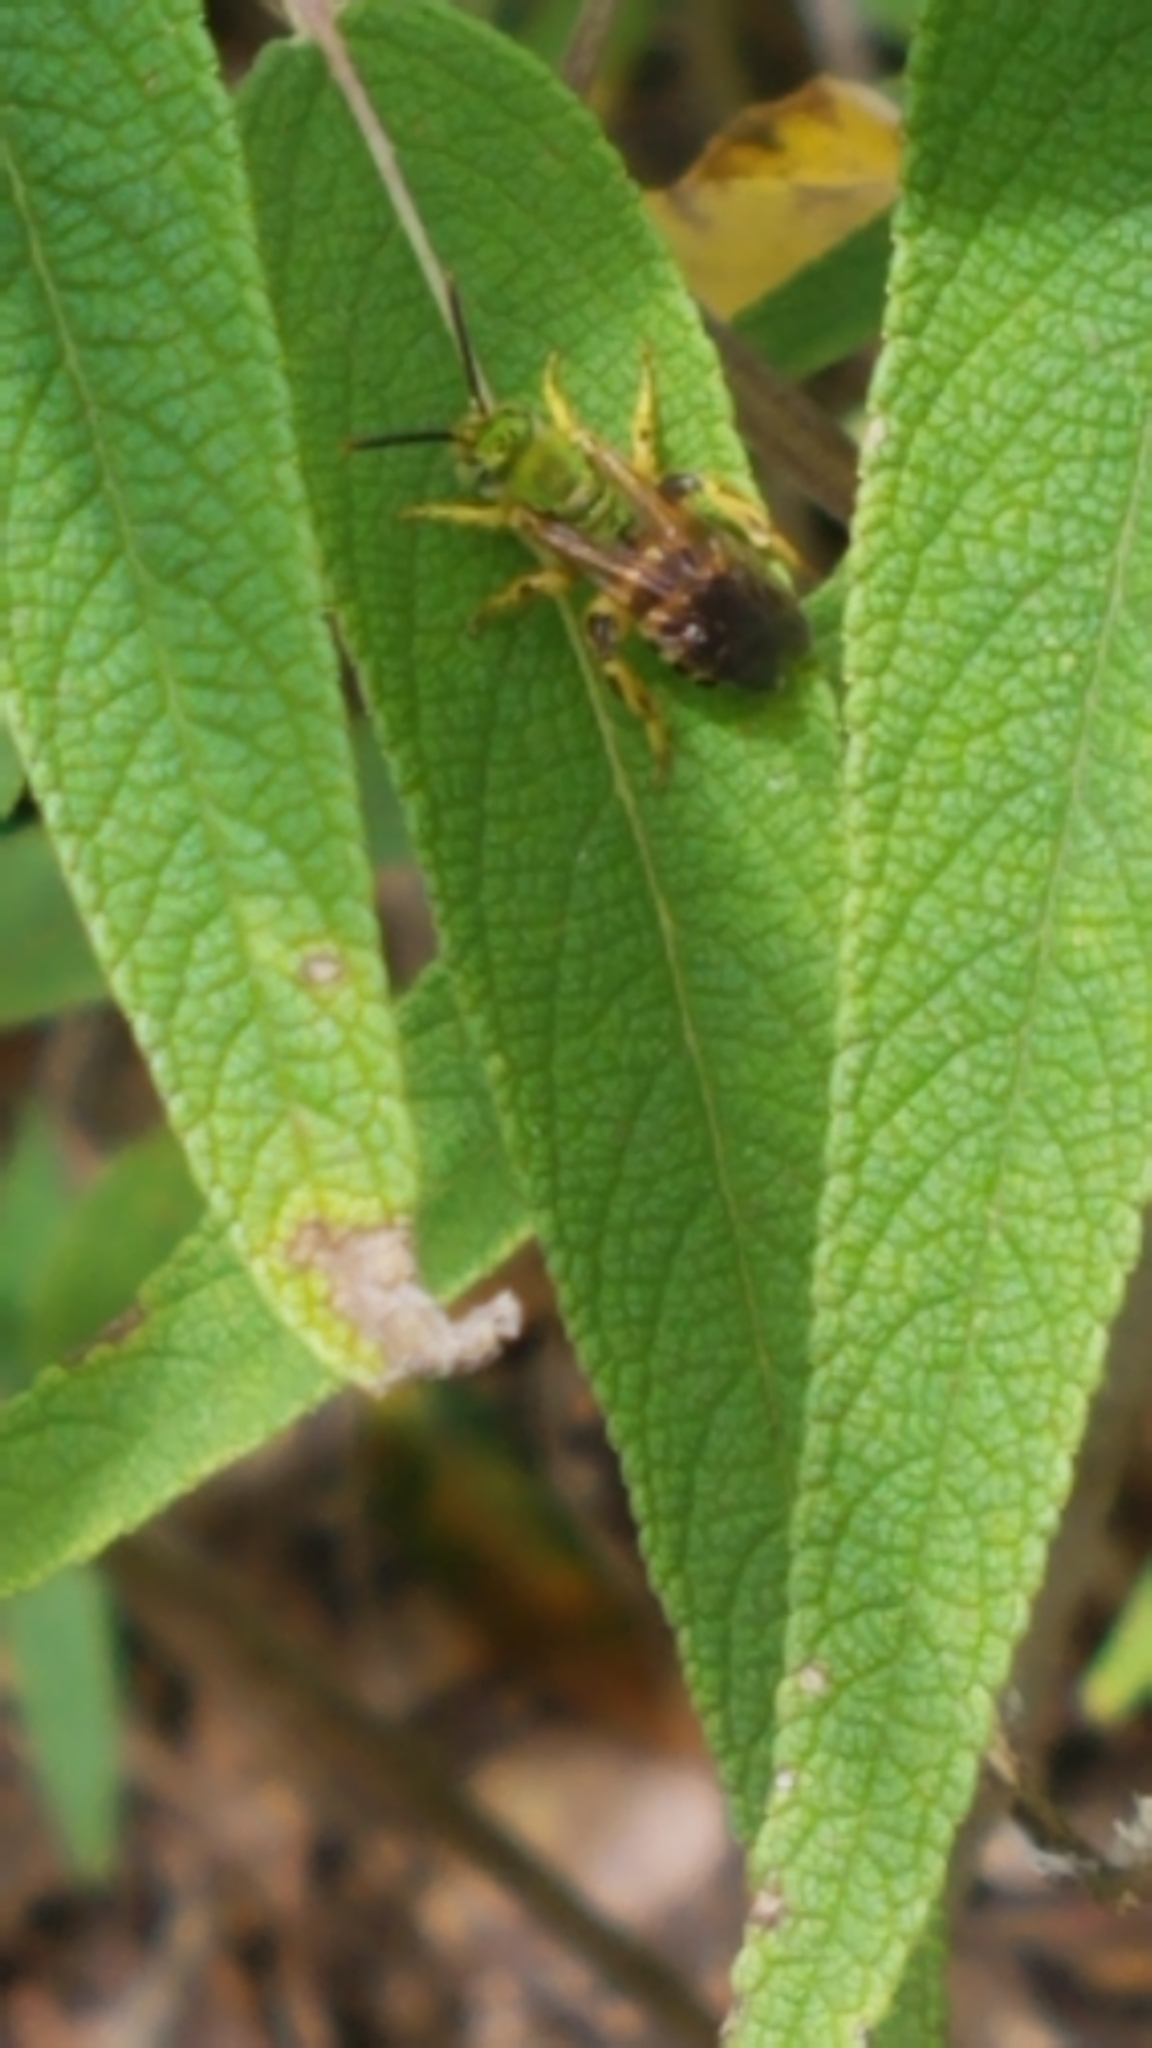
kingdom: Animalia
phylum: Arthropoda
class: Insecta
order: Hymenoptera
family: Halictidae
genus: Agapostemon
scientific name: Agapostemon splendens
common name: Brown-winged striped sweat bee
